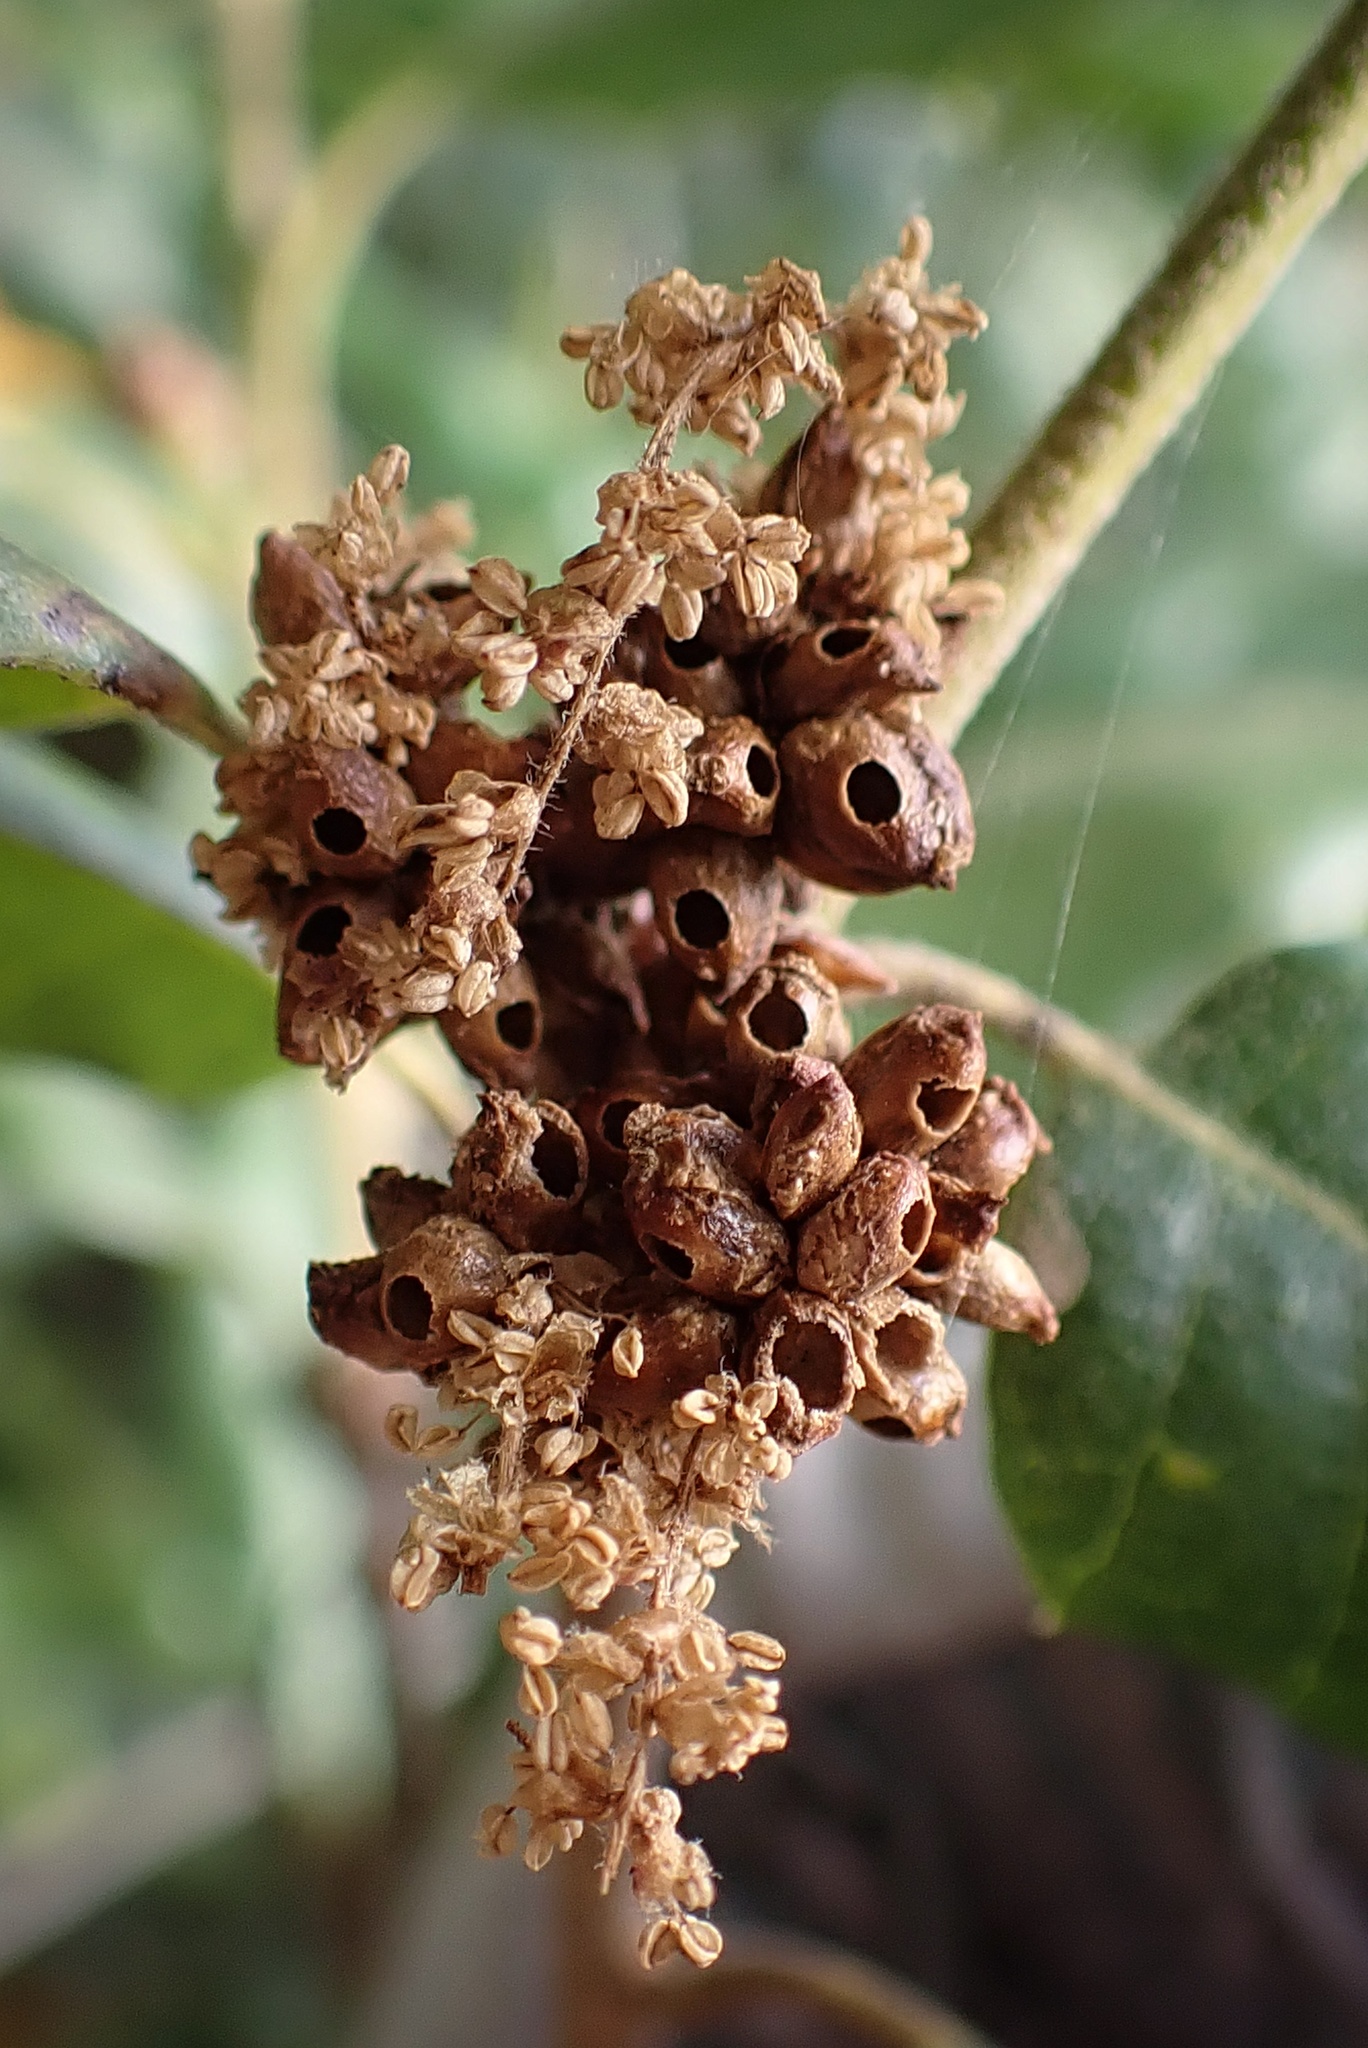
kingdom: Animalia
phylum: Arthropoda
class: Insecta
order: Hymenoptera
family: Cynipidae
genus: Callirhytis
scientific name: Callirhytis
